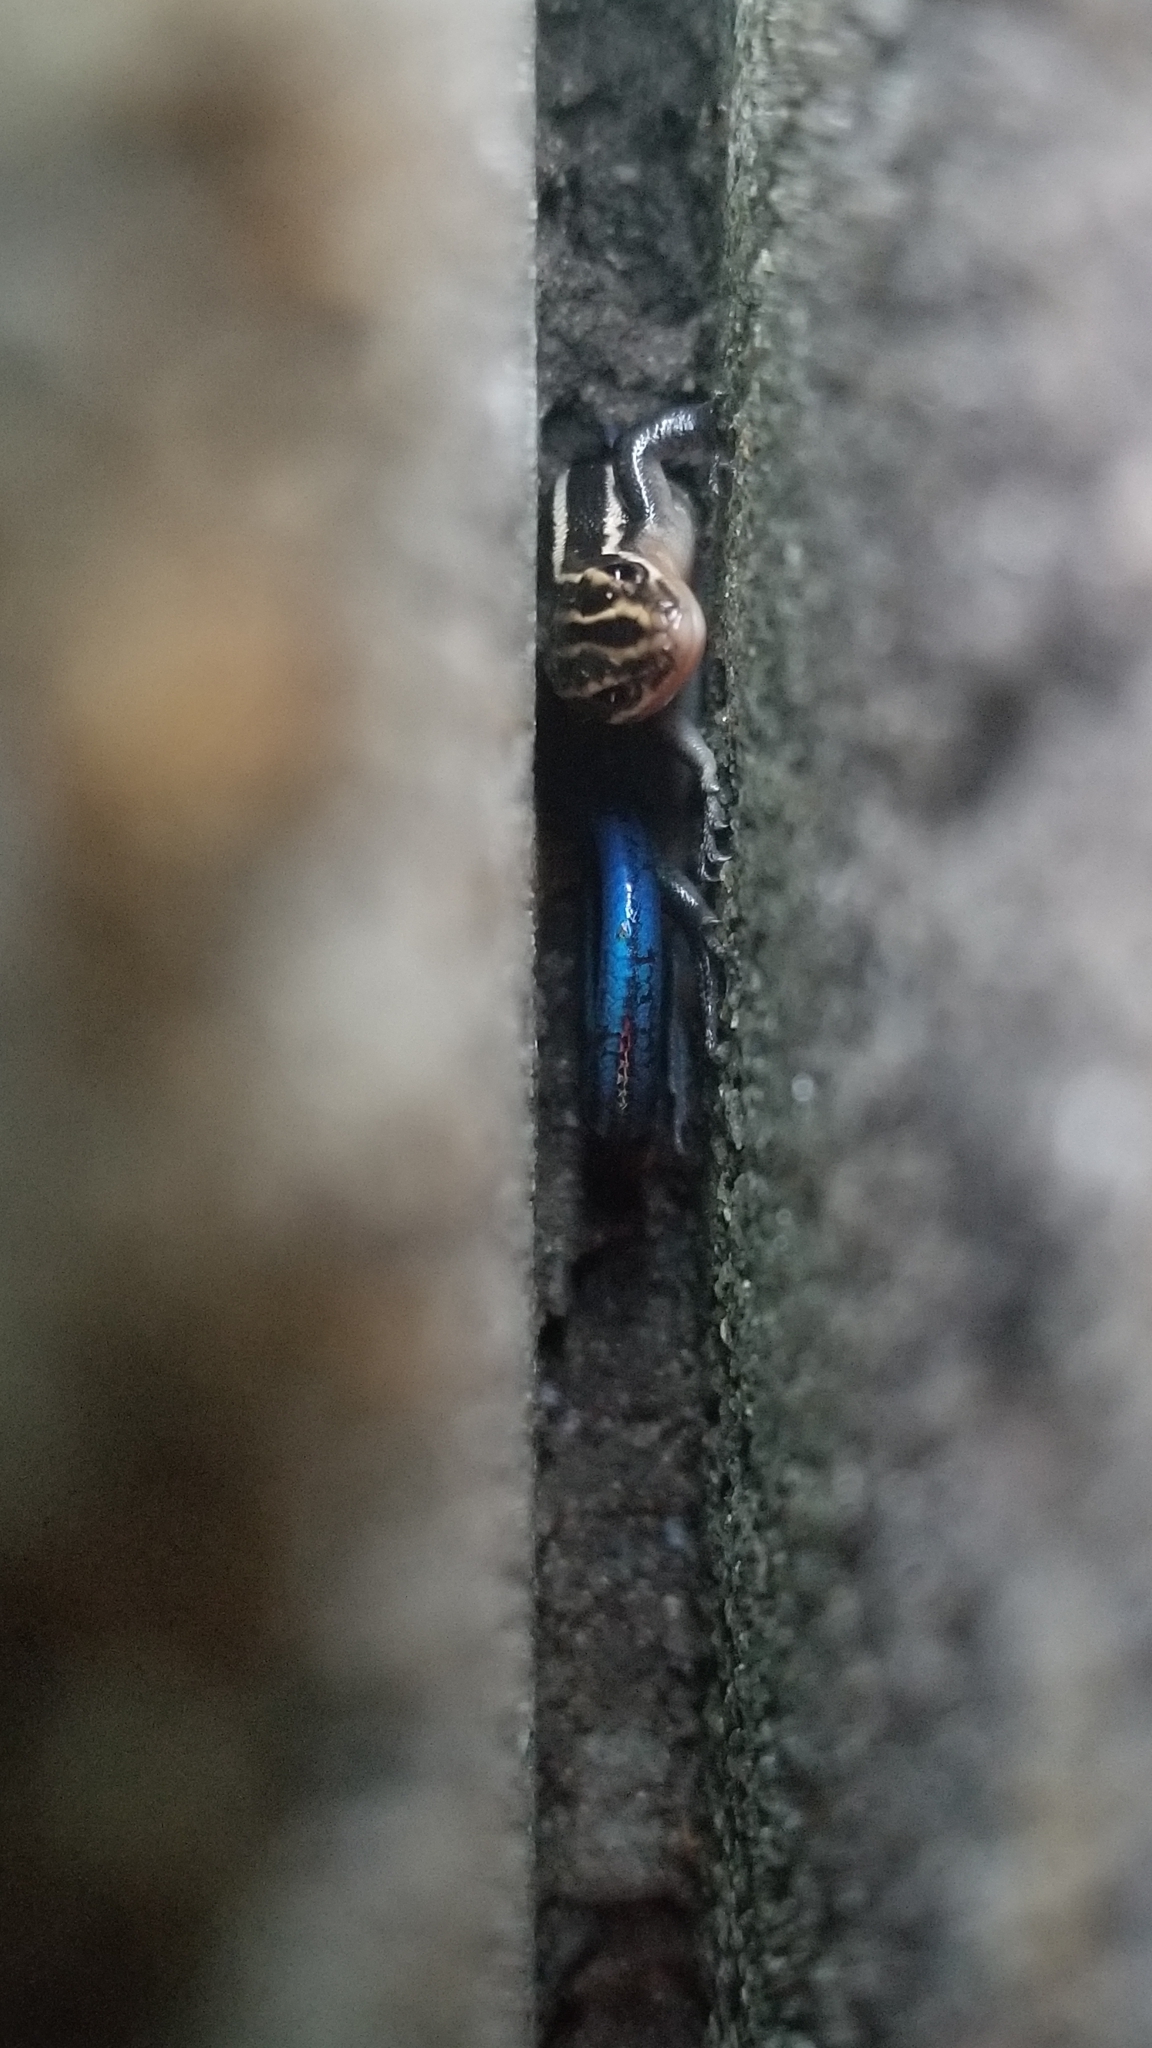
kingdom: Animalia
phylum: Chordata
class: Squamata
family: Scincidae
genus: Plestiodon
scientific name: Plestiodon fasciatus
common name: Five-lined skink
